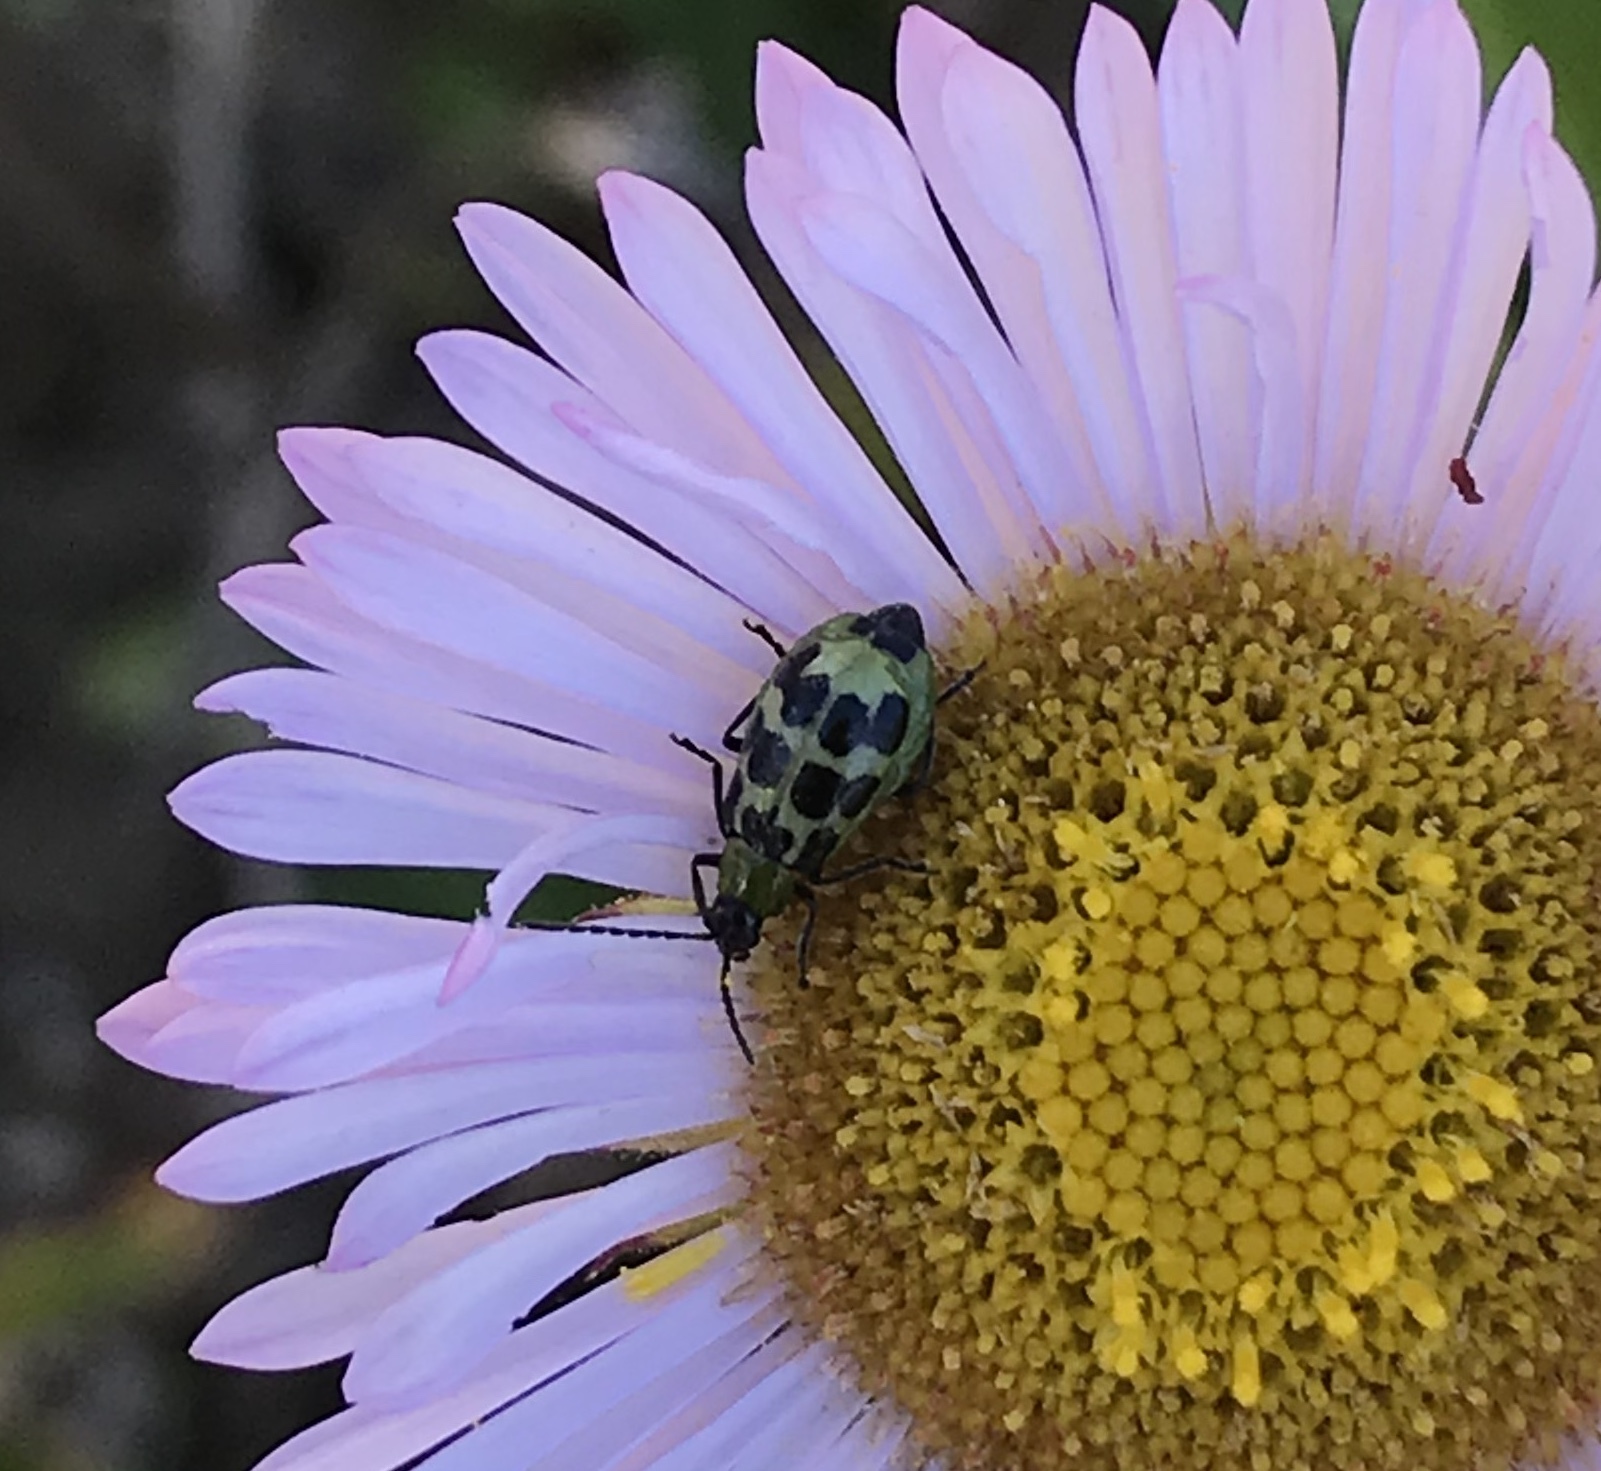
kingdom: Animalia
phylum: Arthropoda
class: Insecta
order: Coleoptera
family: Chrysomelidae
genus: Diabrotica
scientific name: Diabrotica undecimpunctata
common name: Spotted cucumber beetle
